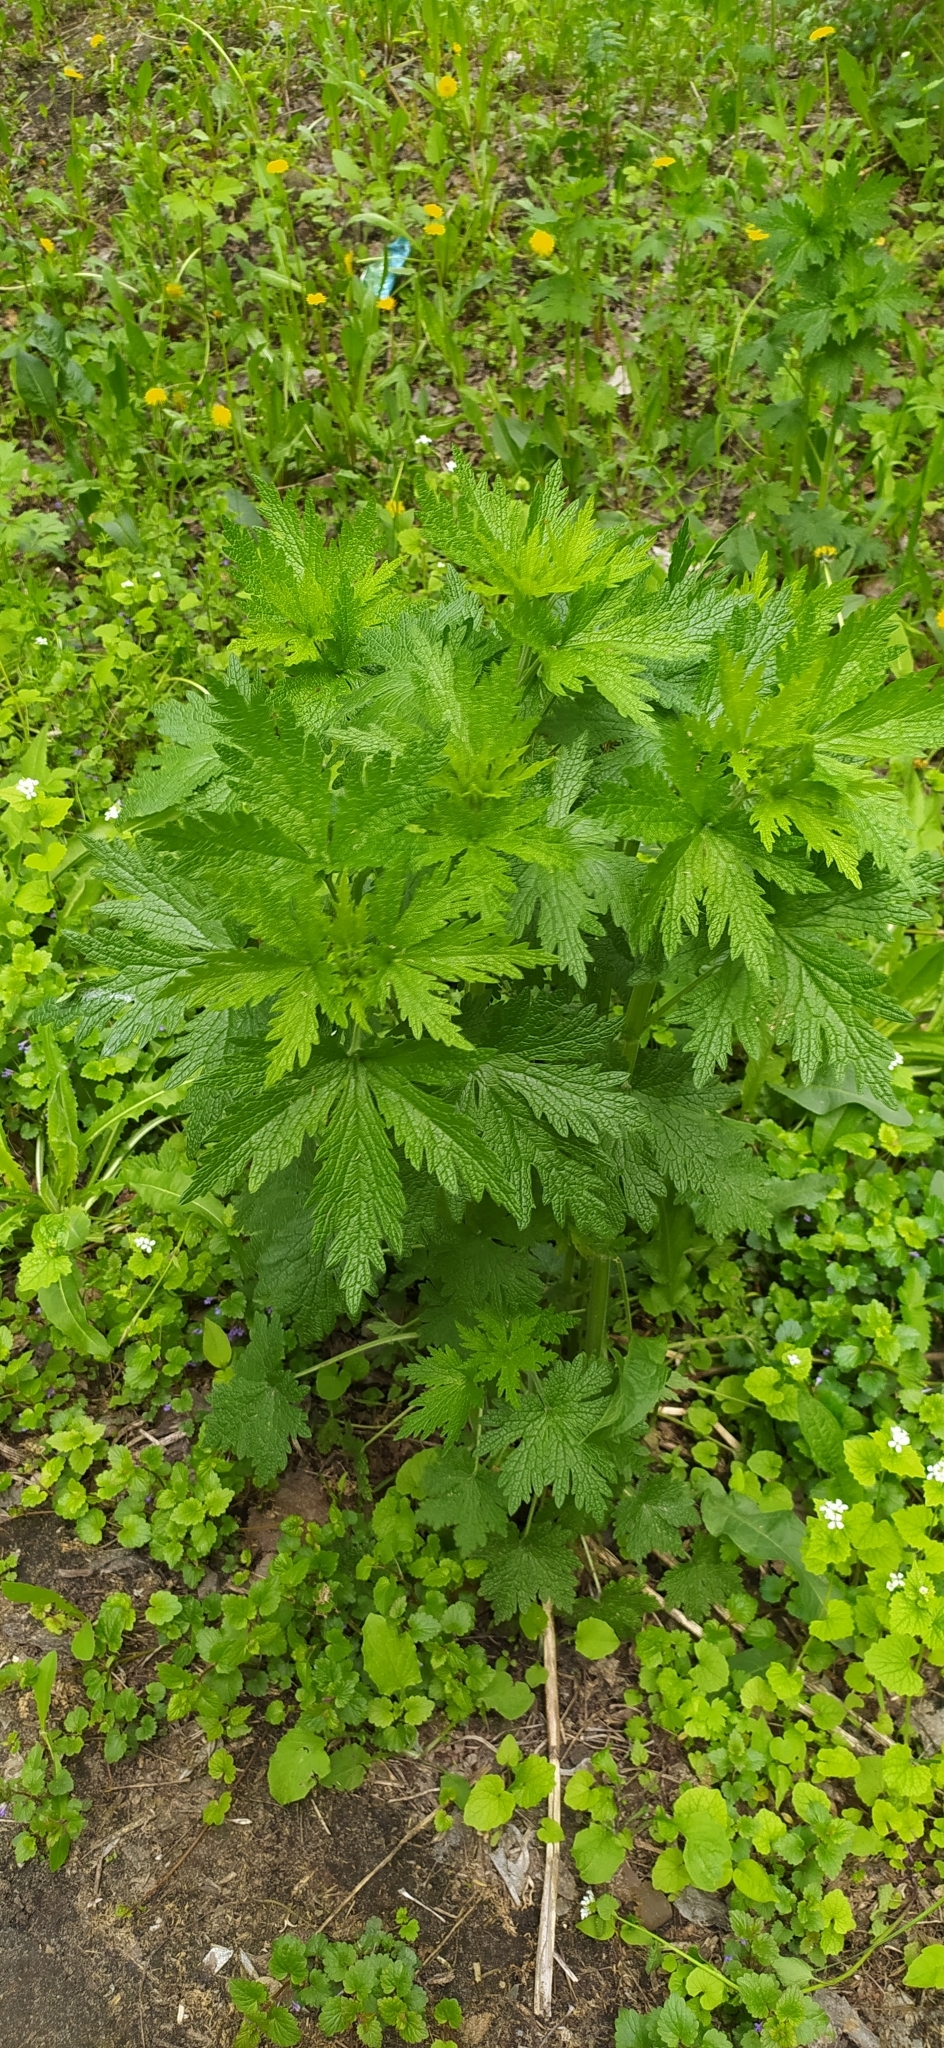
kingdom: Plantae
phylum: Tracheophyta
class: Magnoliopsida
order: Lamiales
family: Lamiaceae
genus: Leonurus
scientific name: Leonurus quinquelobatus
